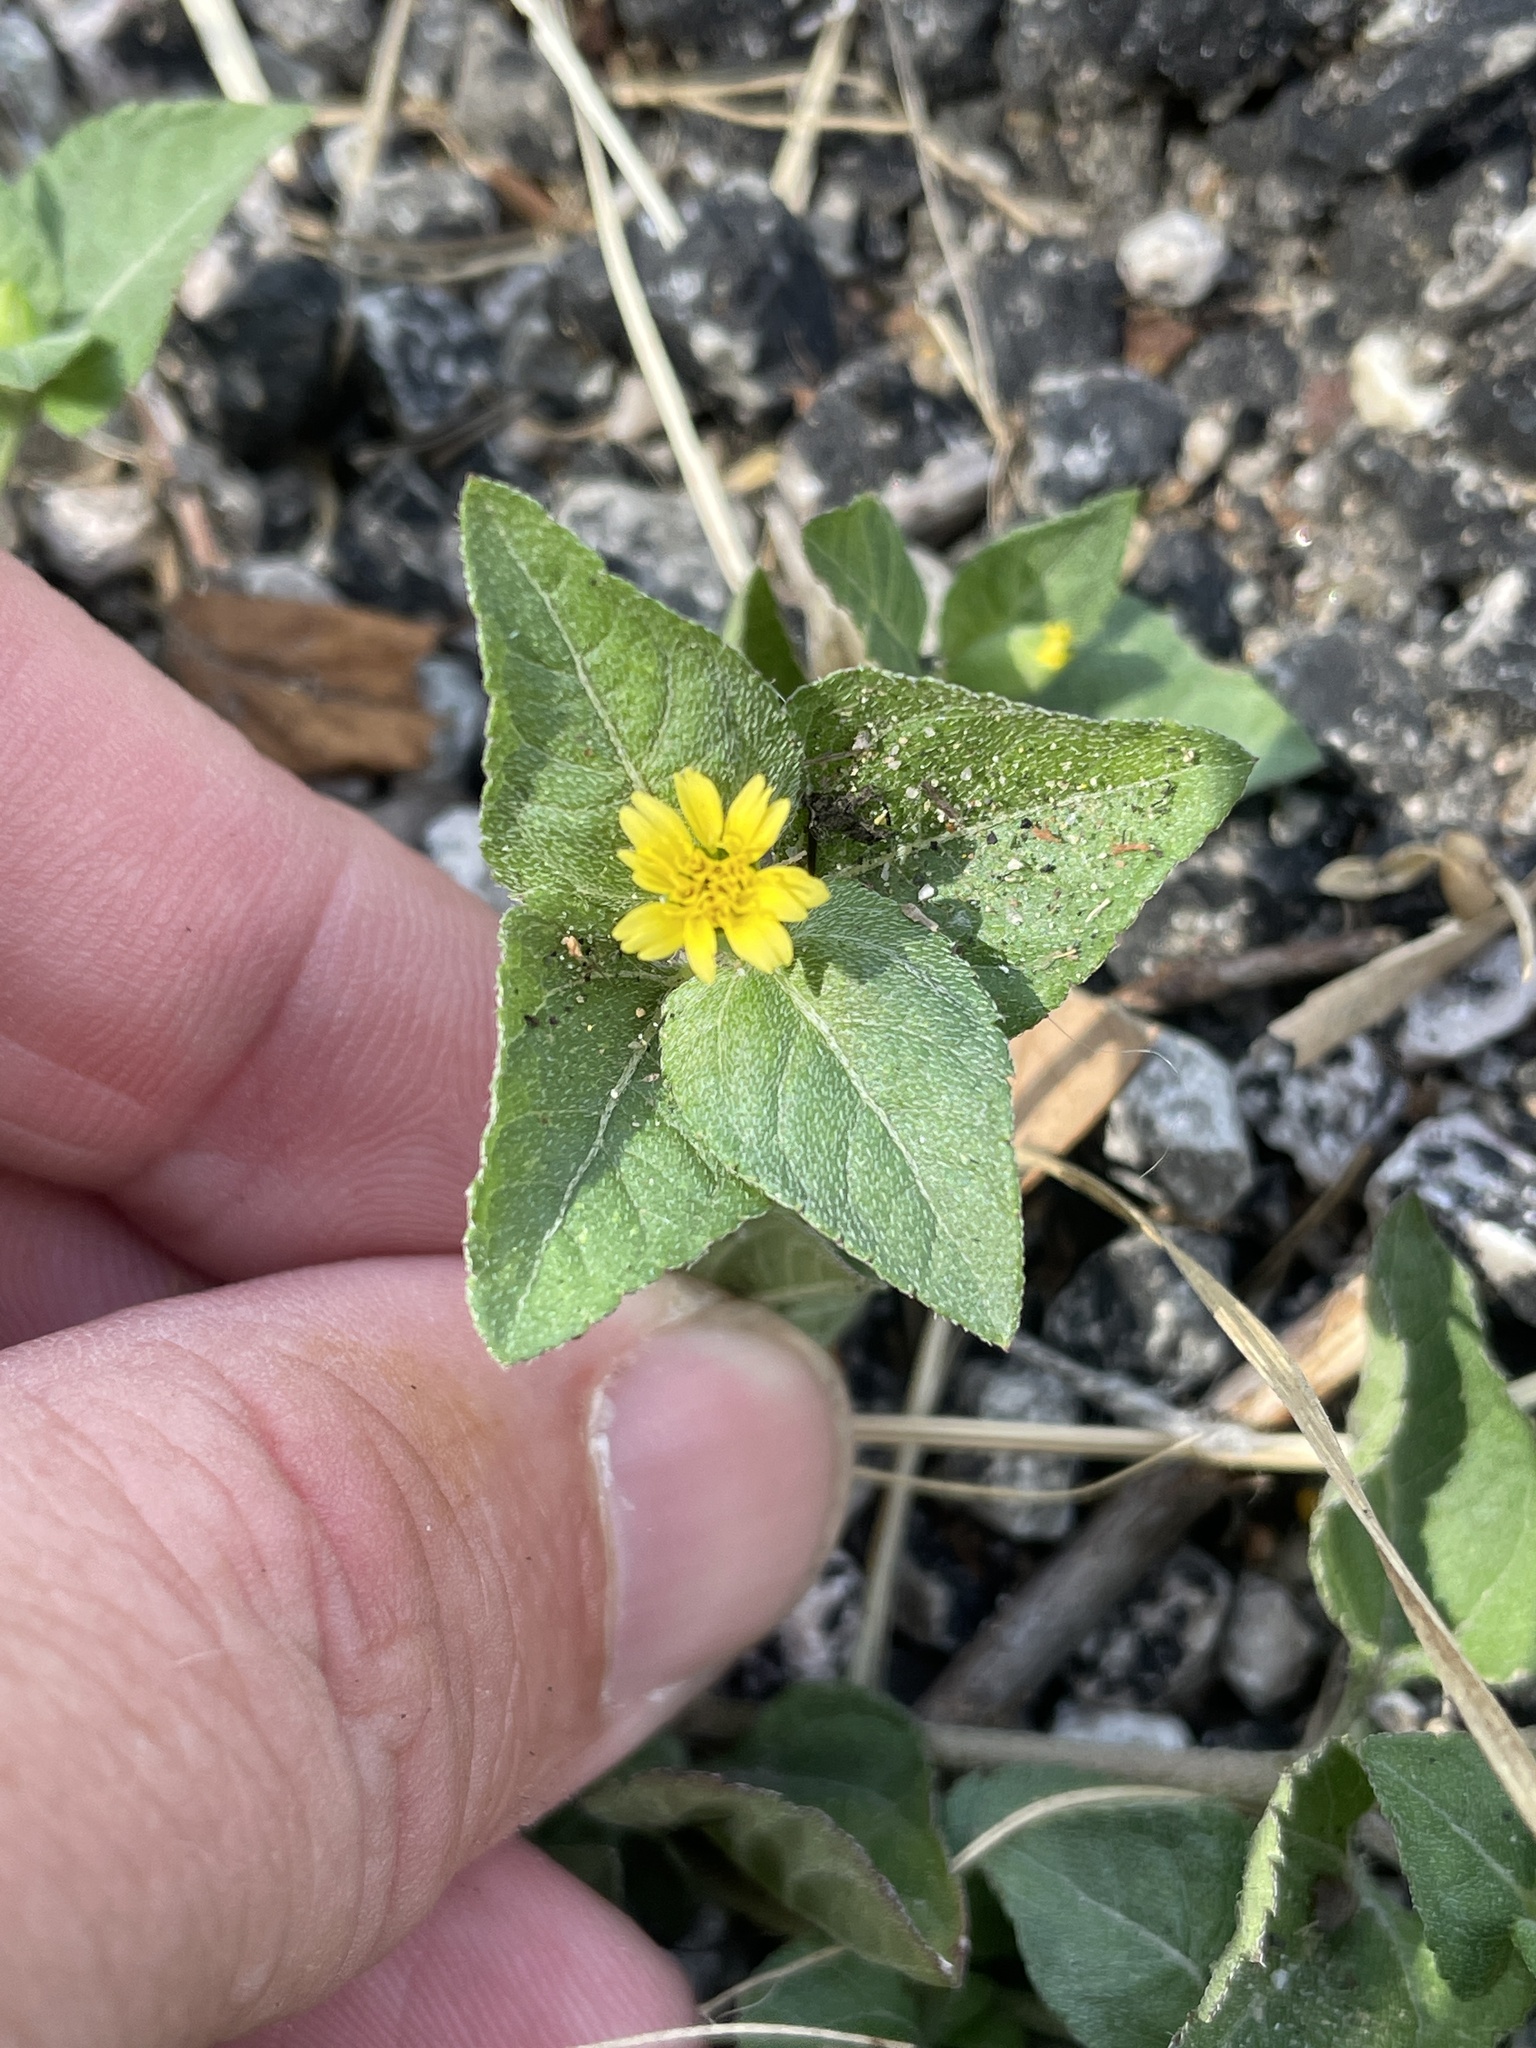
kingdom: Plantae
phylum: Tracheophyta
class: Magnoliopsida
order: Asterales
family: Asteraceae
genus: Calyptocarpus
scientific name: Calyptocarpus vialis
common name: Straggler daisy
